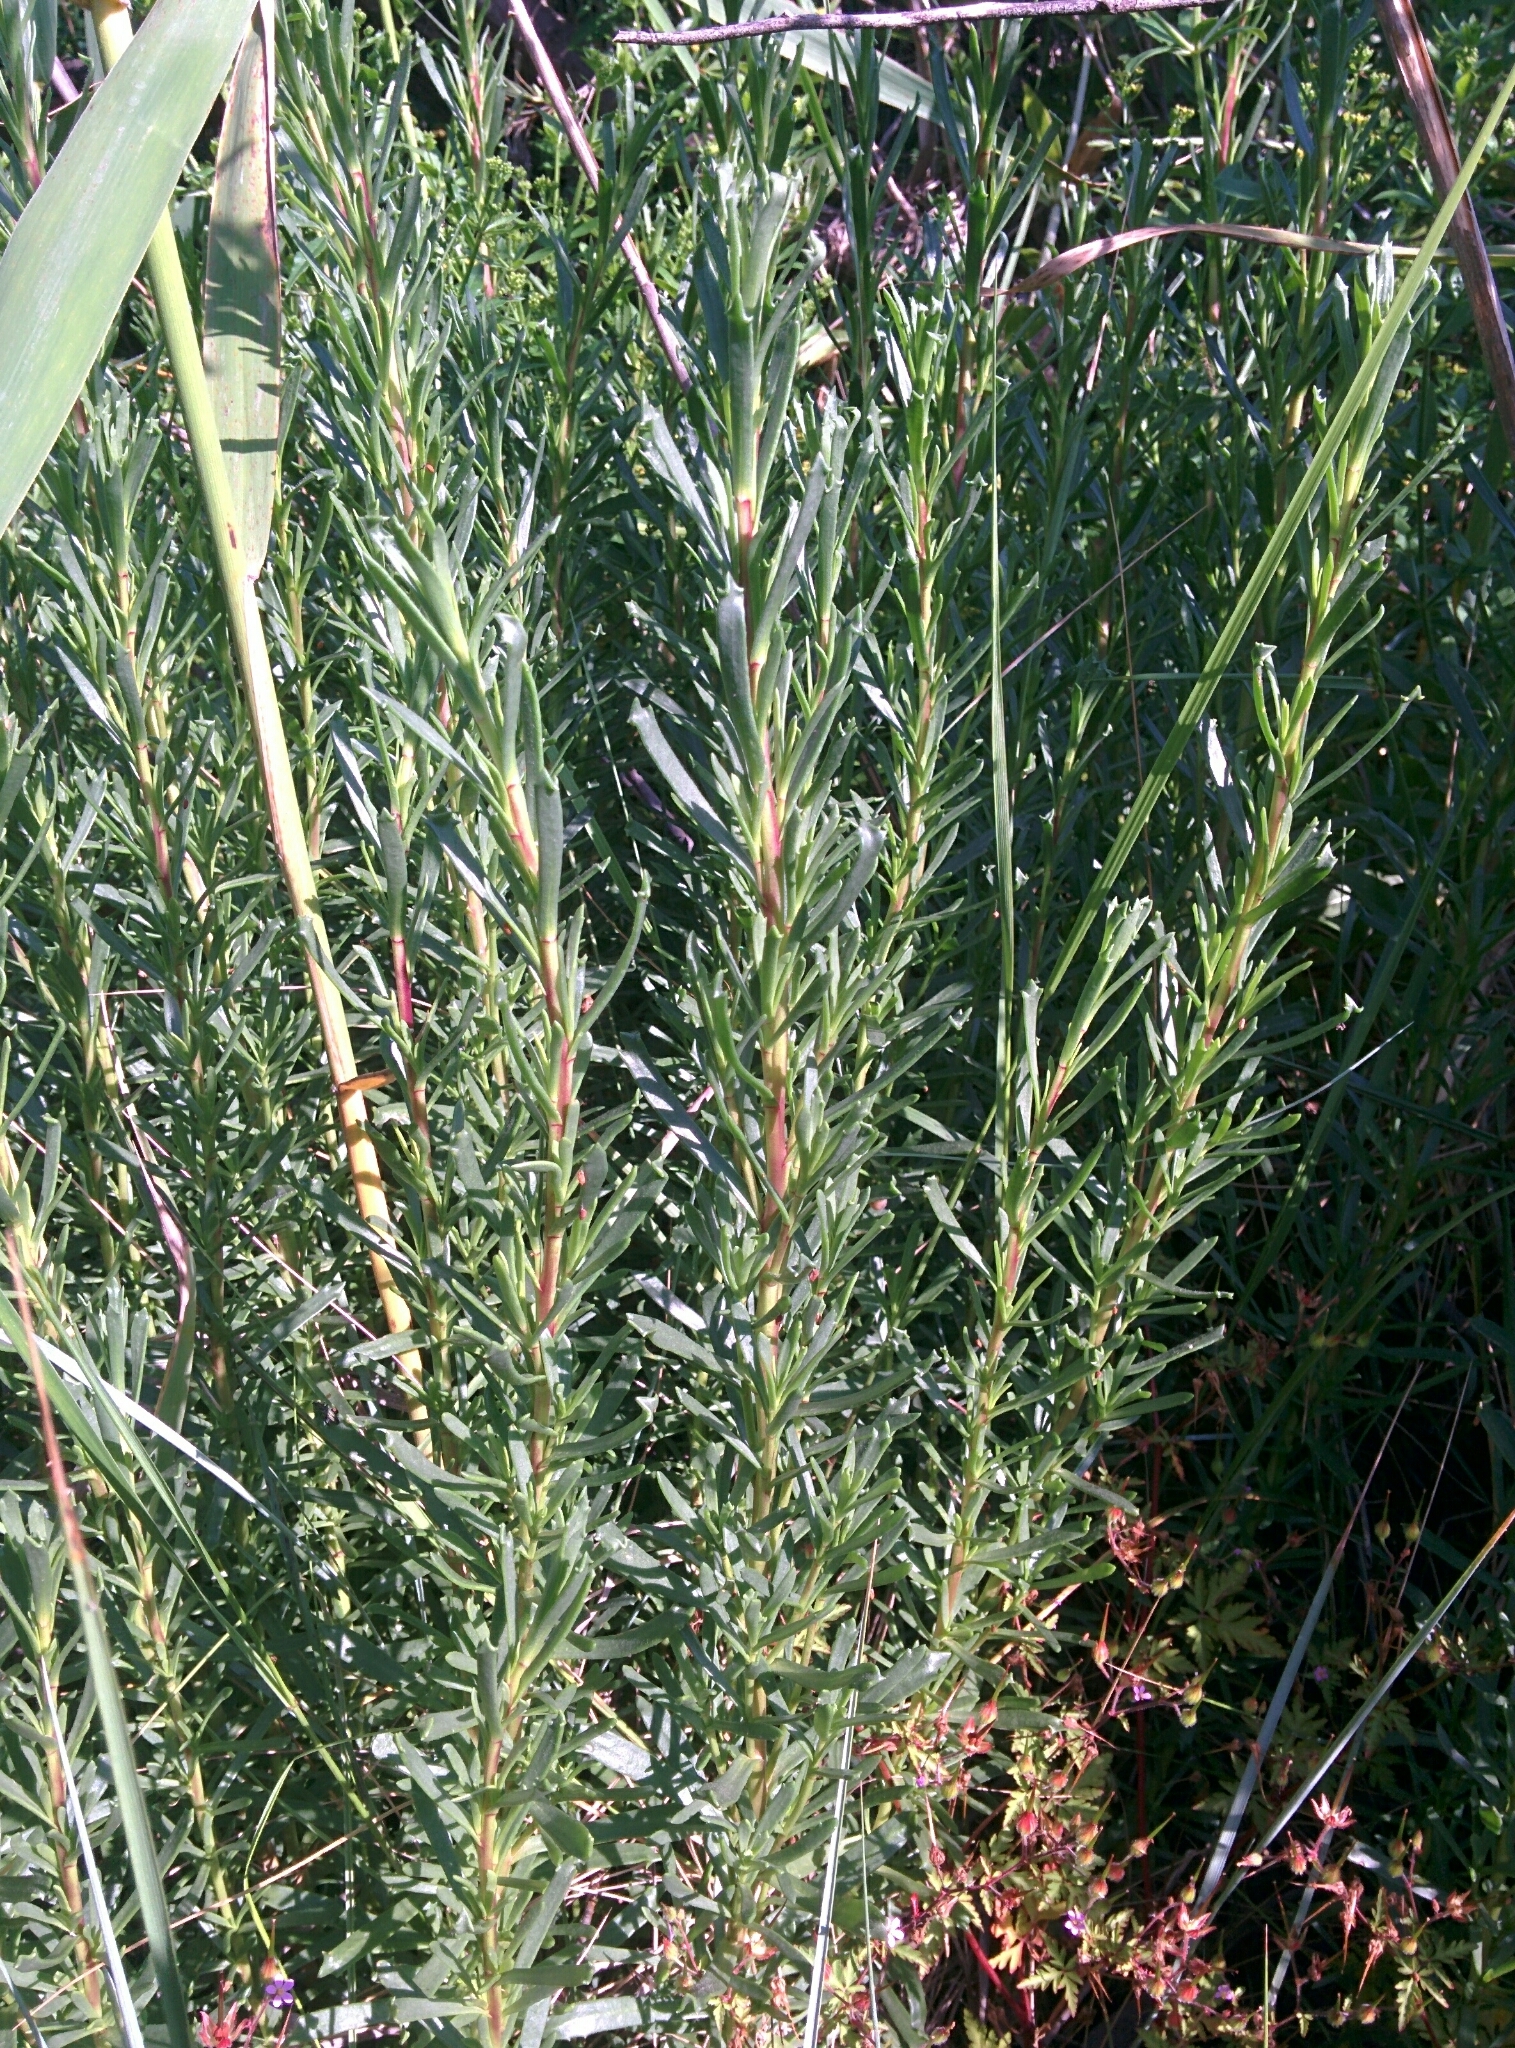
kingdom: Plantae
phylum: Tracheophyta
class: Magnoliopsida
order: Asterales
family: Asteraceae
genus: Limbarda
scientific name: Limbarda crithmoides
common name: Golden samphire
